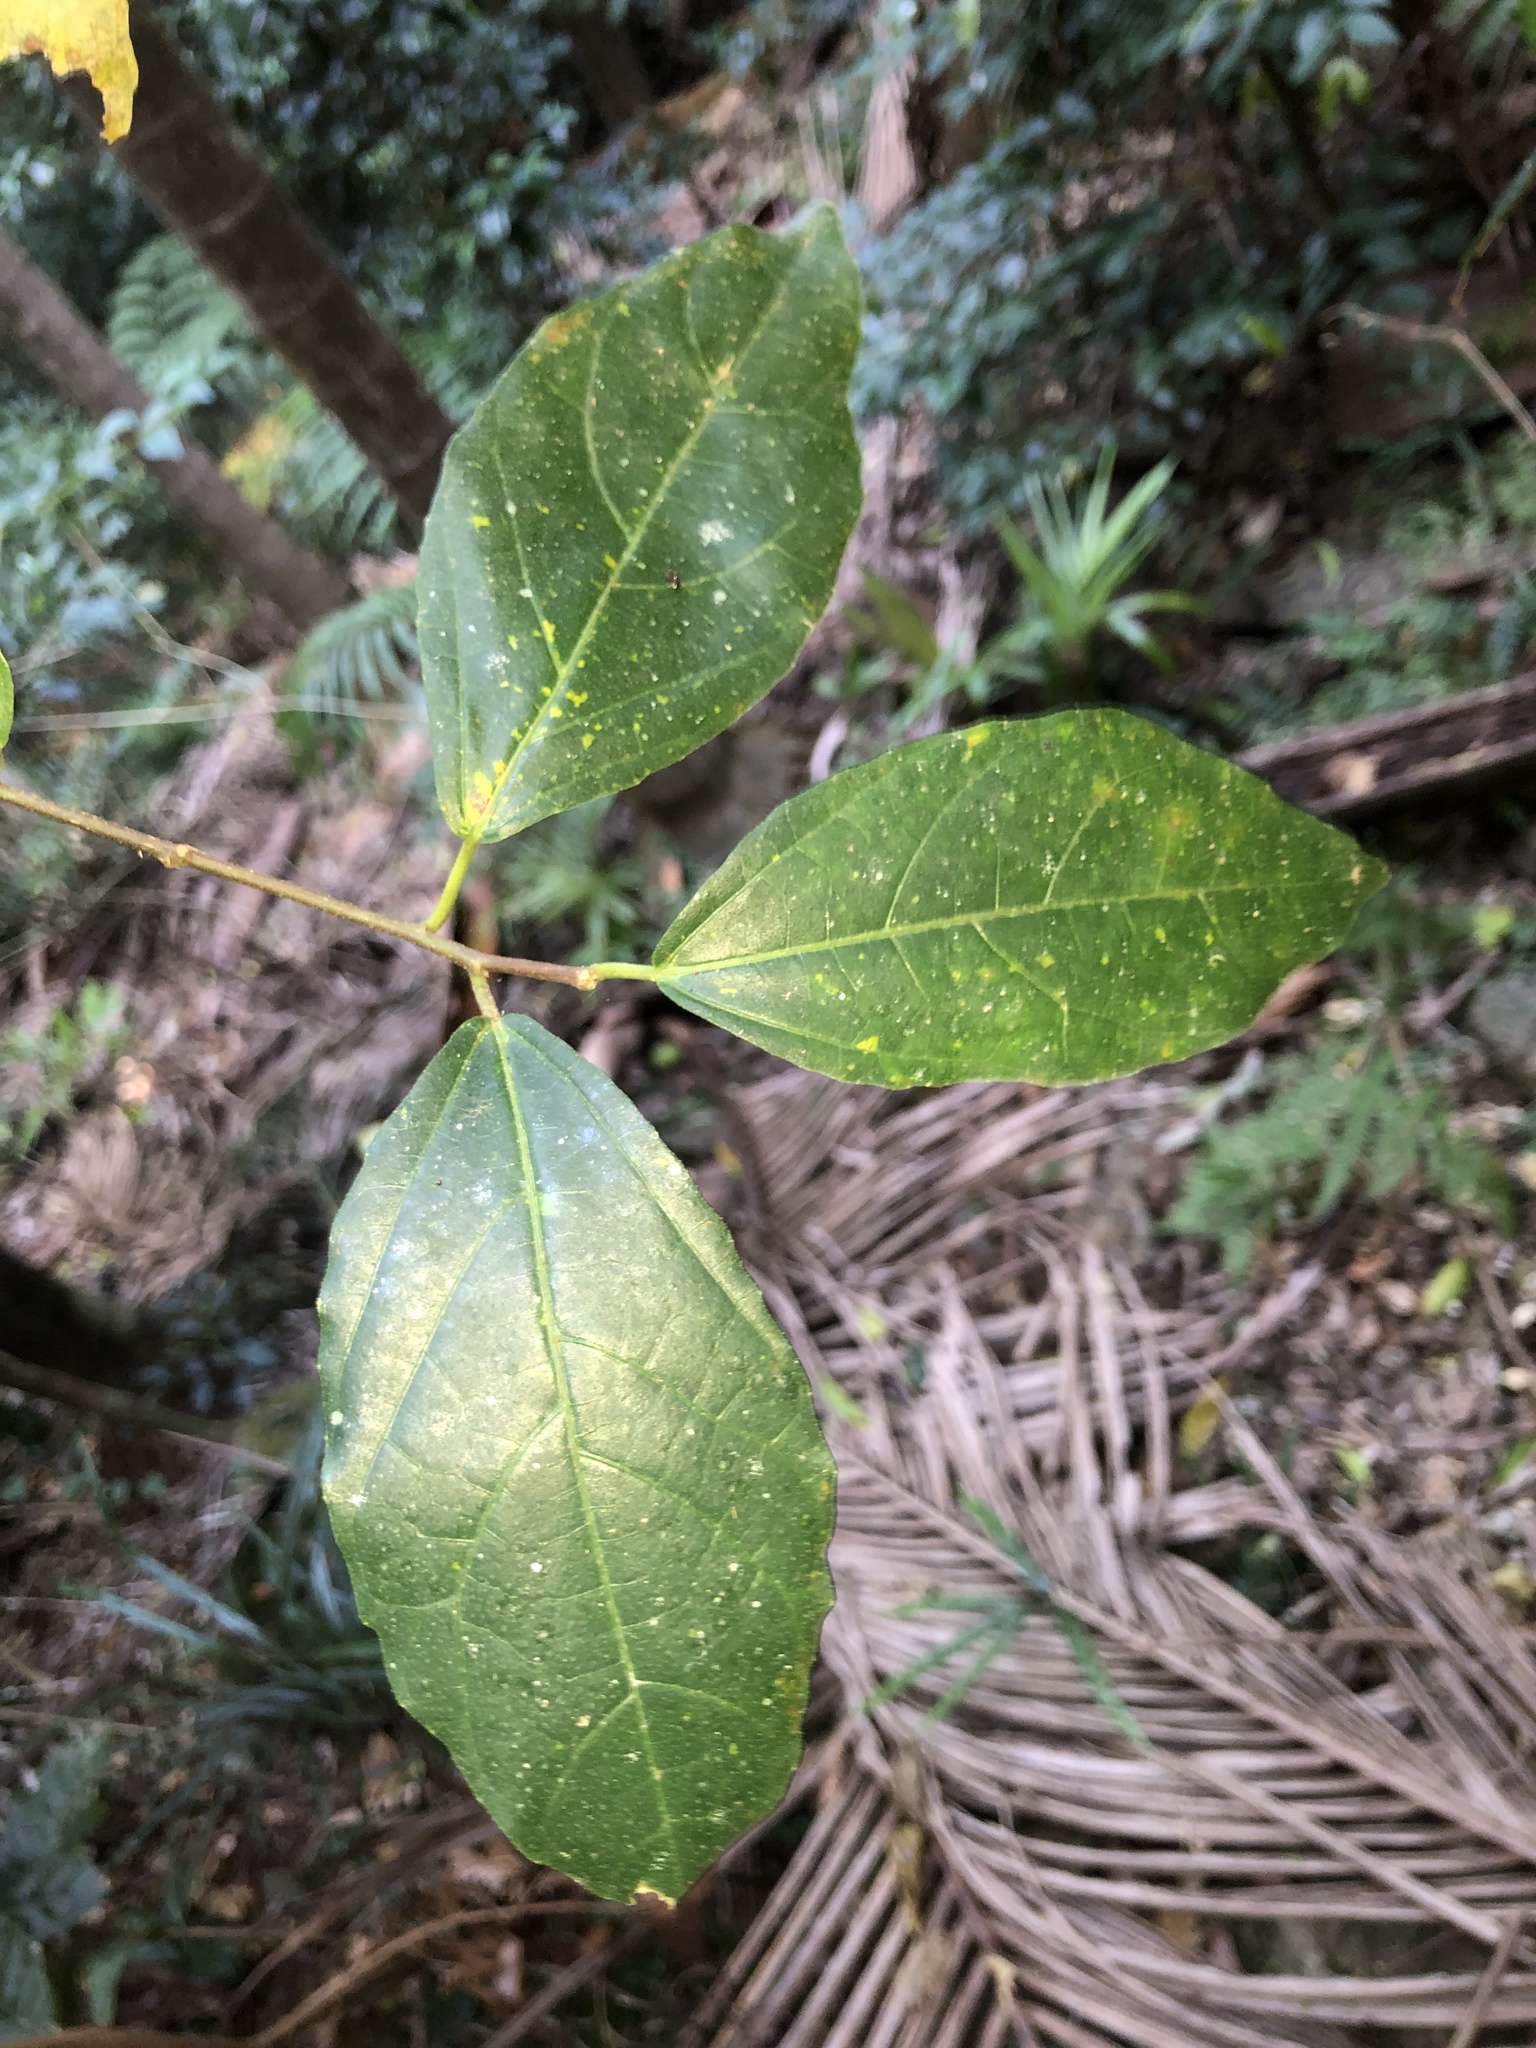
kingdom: Plantae
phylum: Tracheophyta
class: Magnoliopsida
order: Rosales
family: Moraceae
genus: Ficus
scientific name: Ficus fraseri
